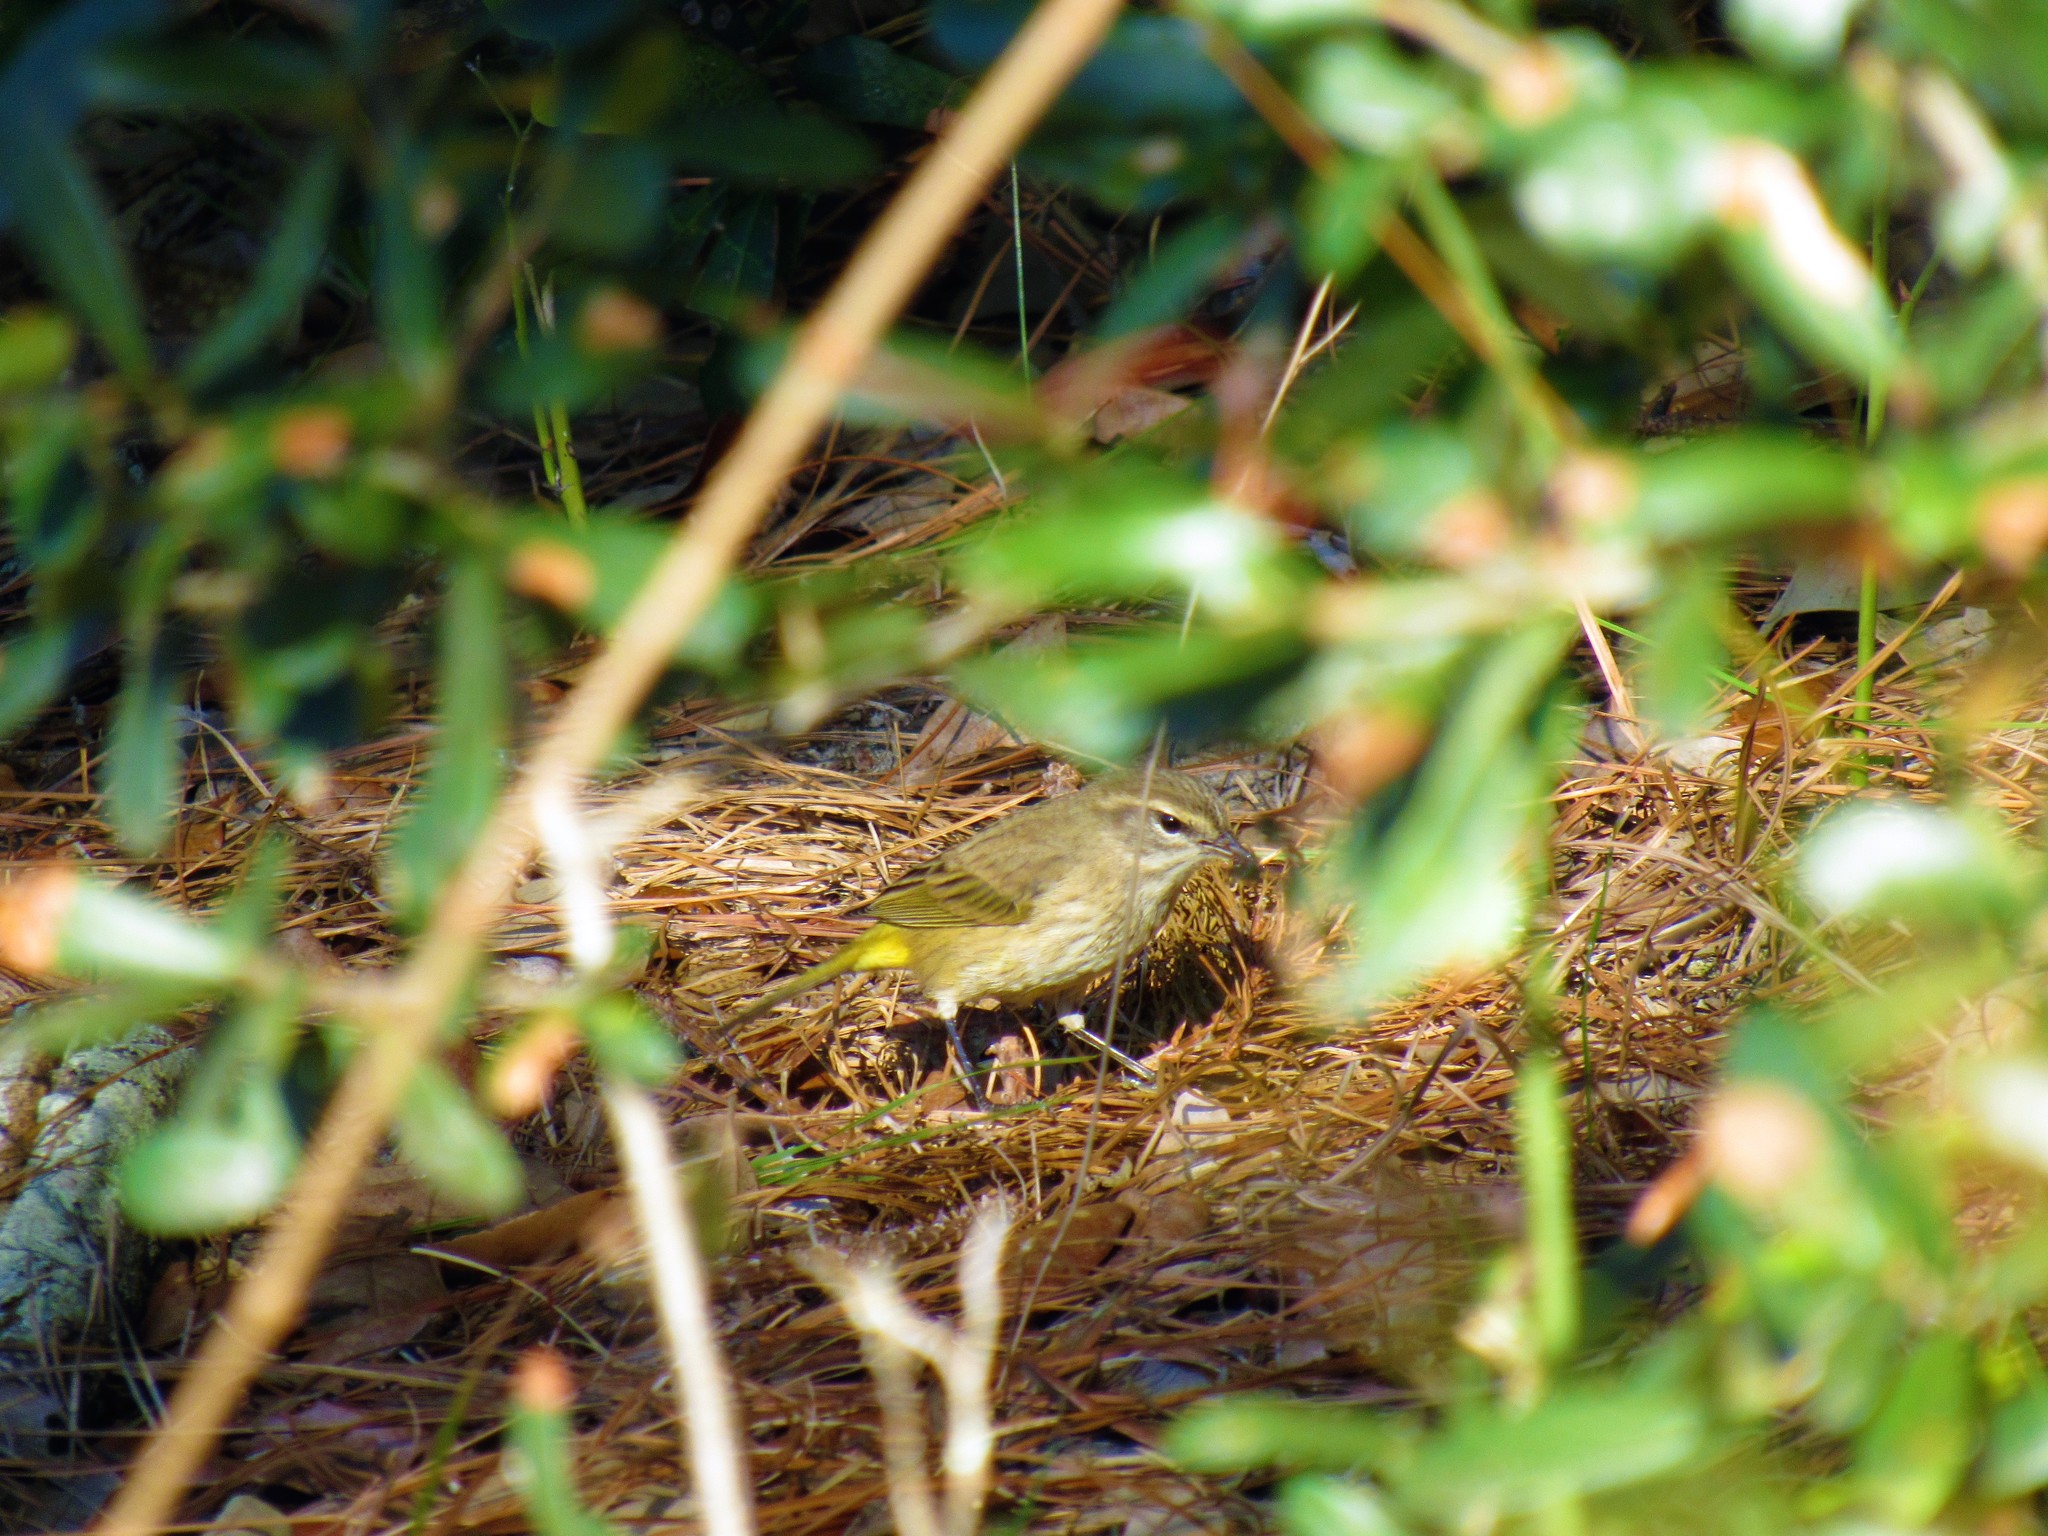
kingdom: Animalia
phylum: Chordata
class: Aves
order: Passeriformes
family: Parulidae
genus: Setophaga
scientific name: Setophaga palmarum
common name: Palm warbler
